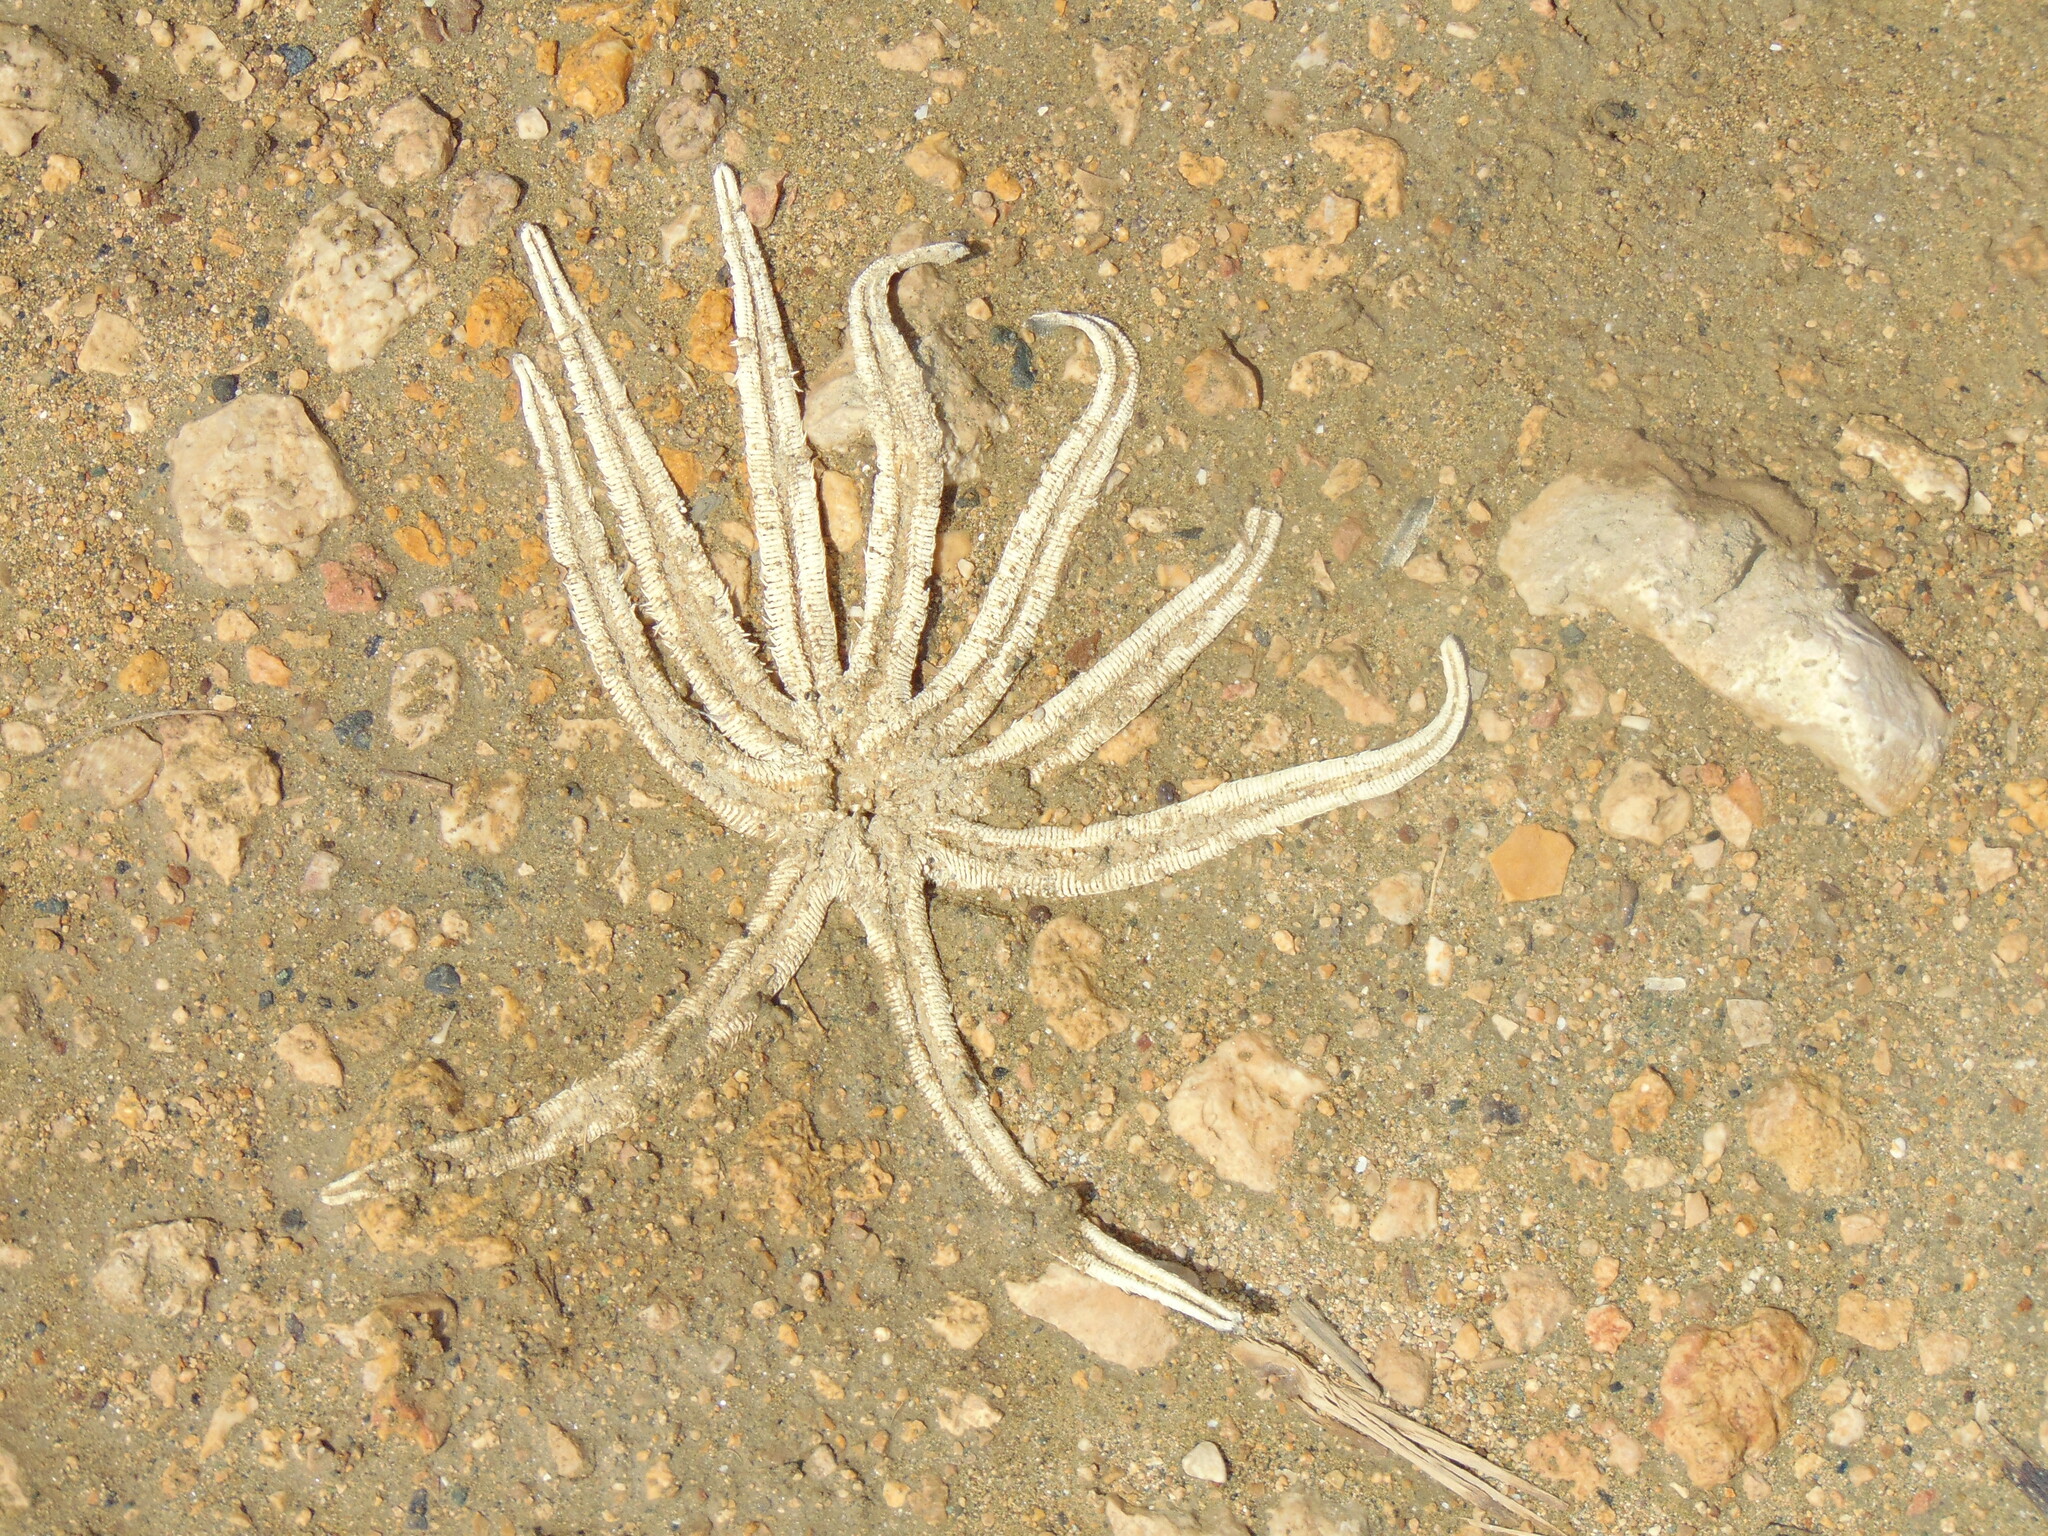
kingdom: Animalia
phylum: Echinodermata
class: Asteroidea
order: Paxillosida
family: Luidiidae
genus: Luidia
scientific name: Luidia senegalensis
